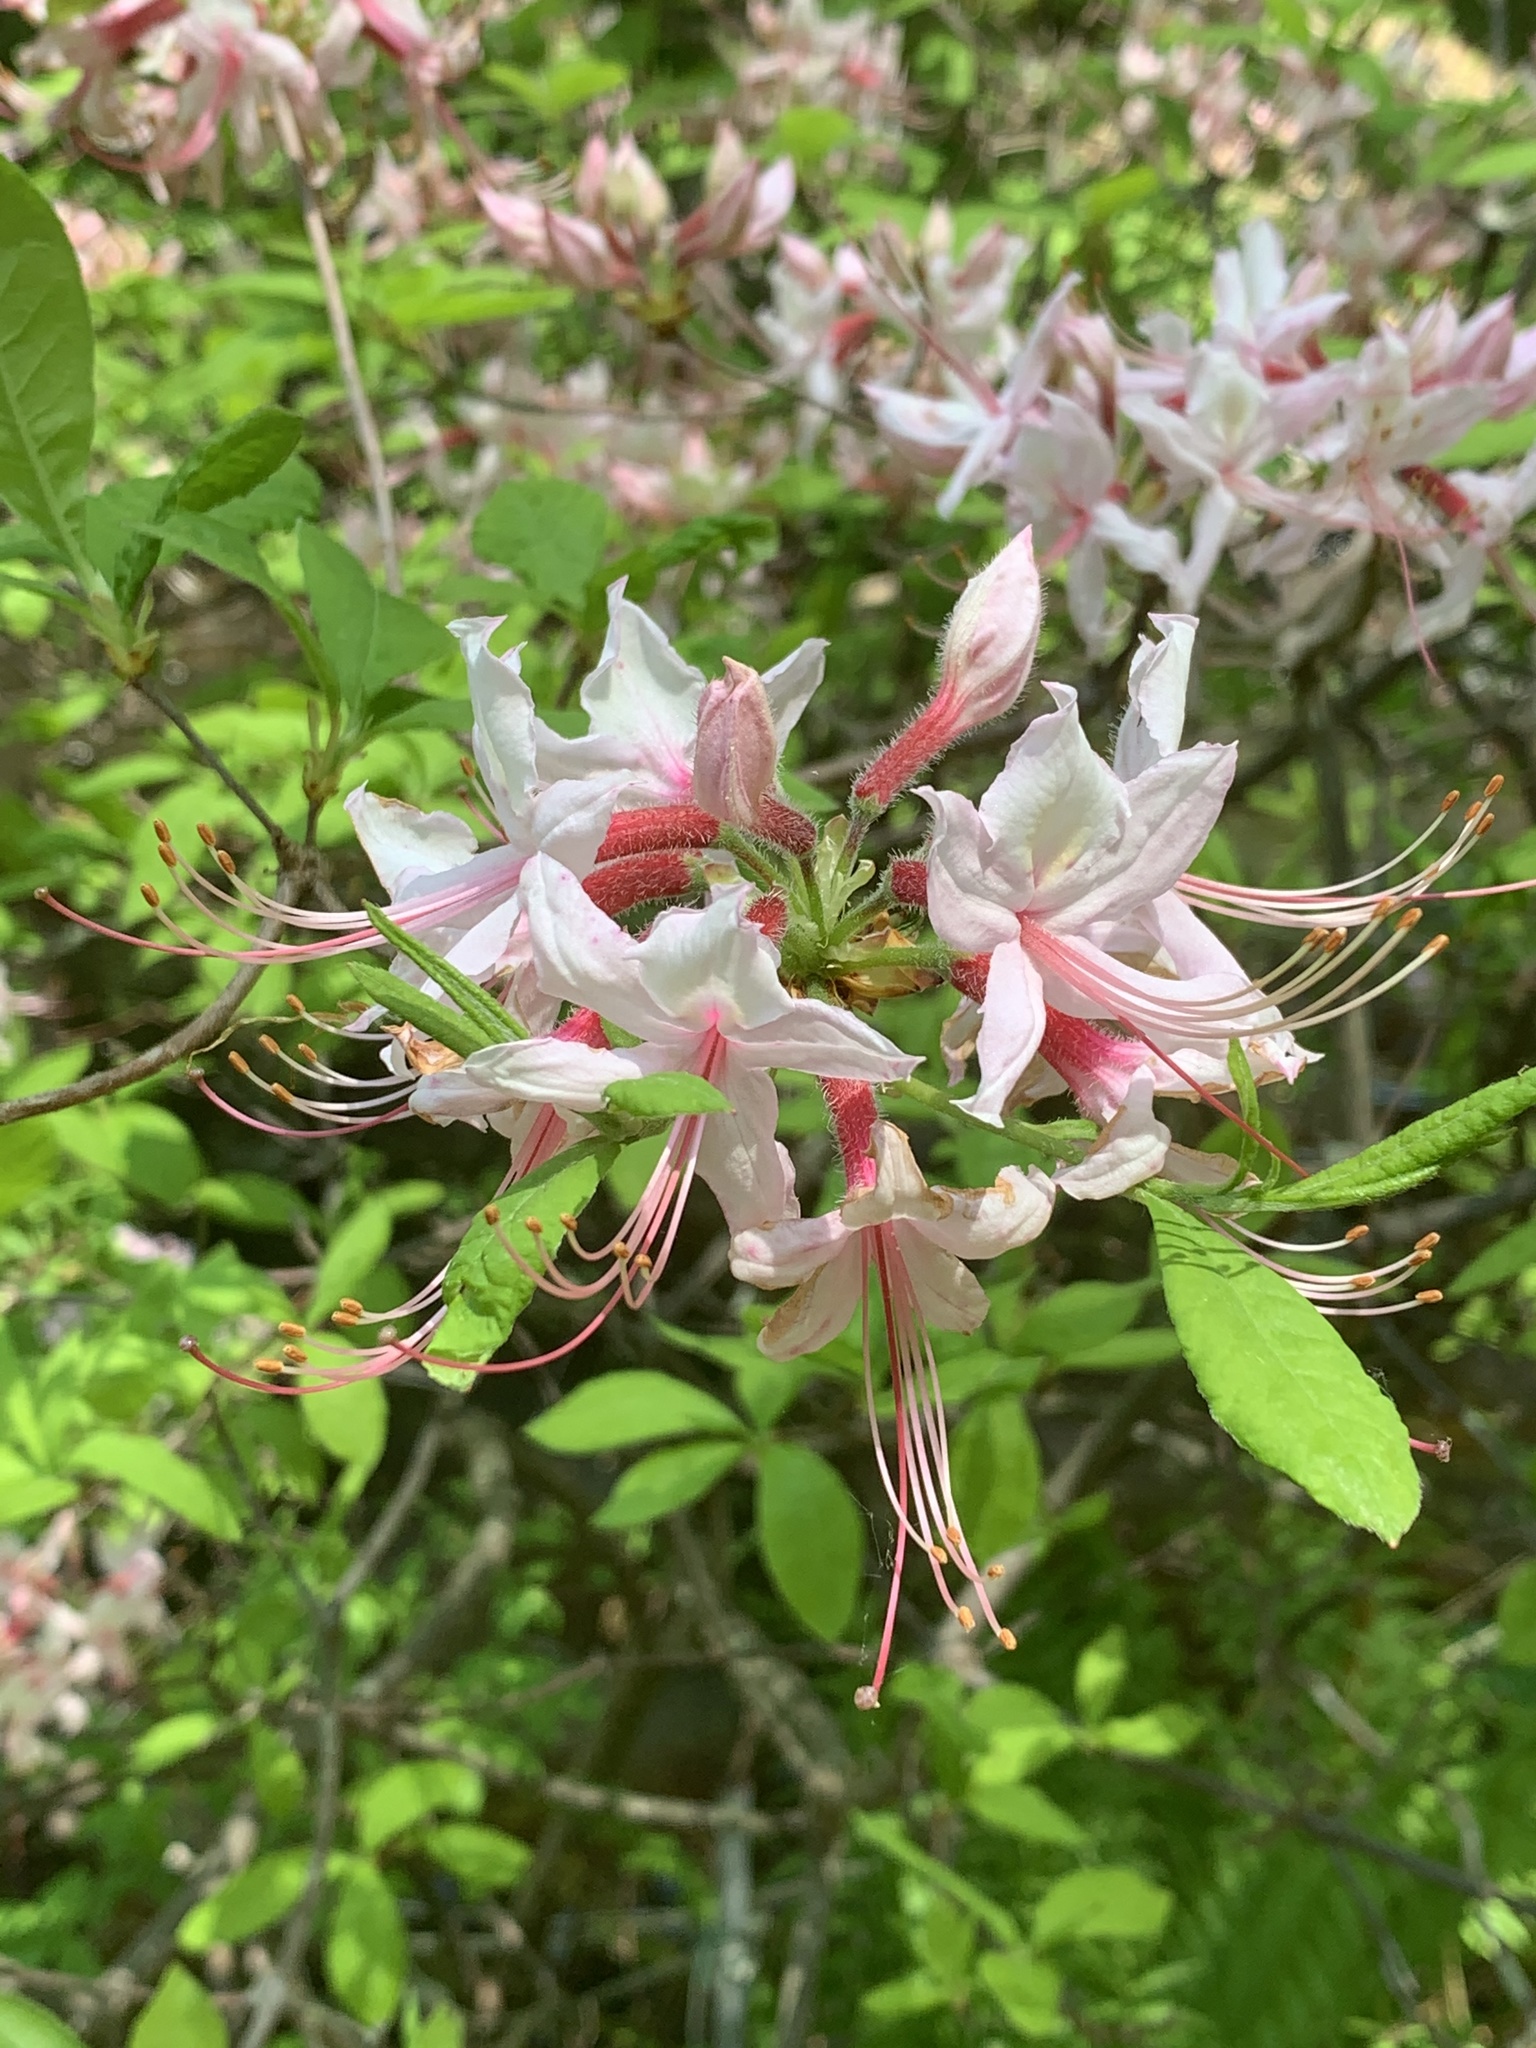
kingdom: Plantae
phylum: Tracheophyta
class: Magnoliopsida
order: Ericales
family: Ericaceae
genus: Rhododendron
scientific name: Rhododendron periclymenoides
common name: Election-pink
